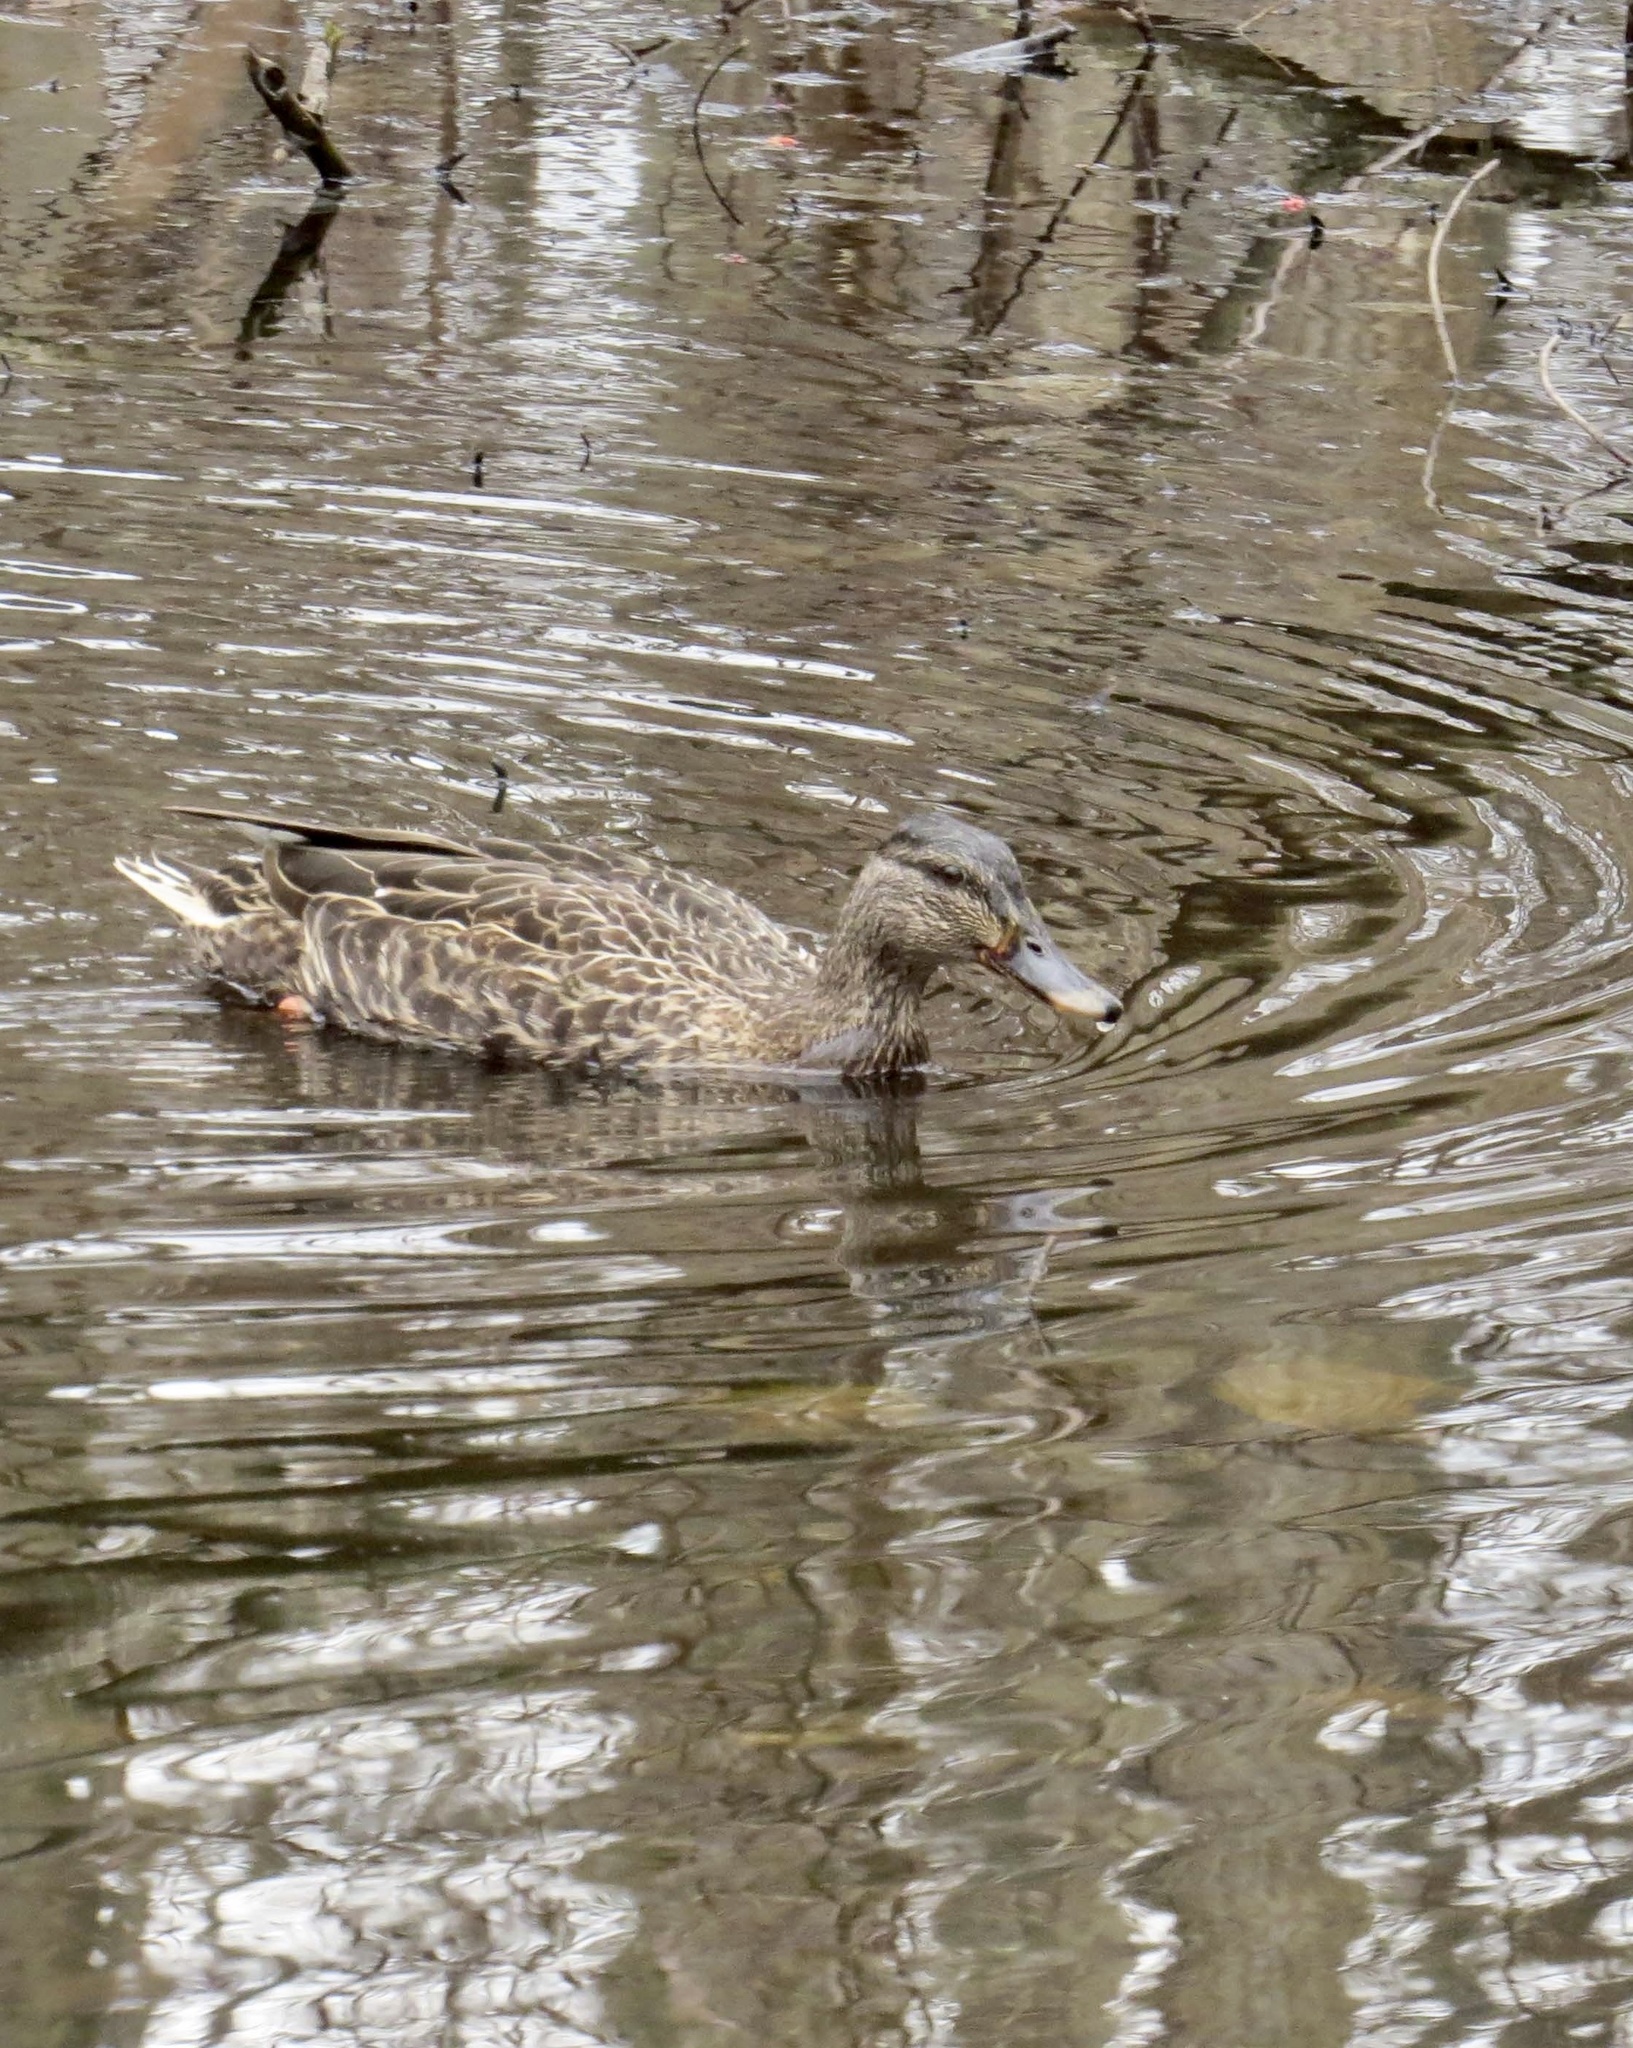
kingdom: Animalia
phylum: Chordata
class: Aves
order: Anseriformes
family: Anatidae
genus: Anas
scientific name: Anas platyrhynchos
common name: Mallard
